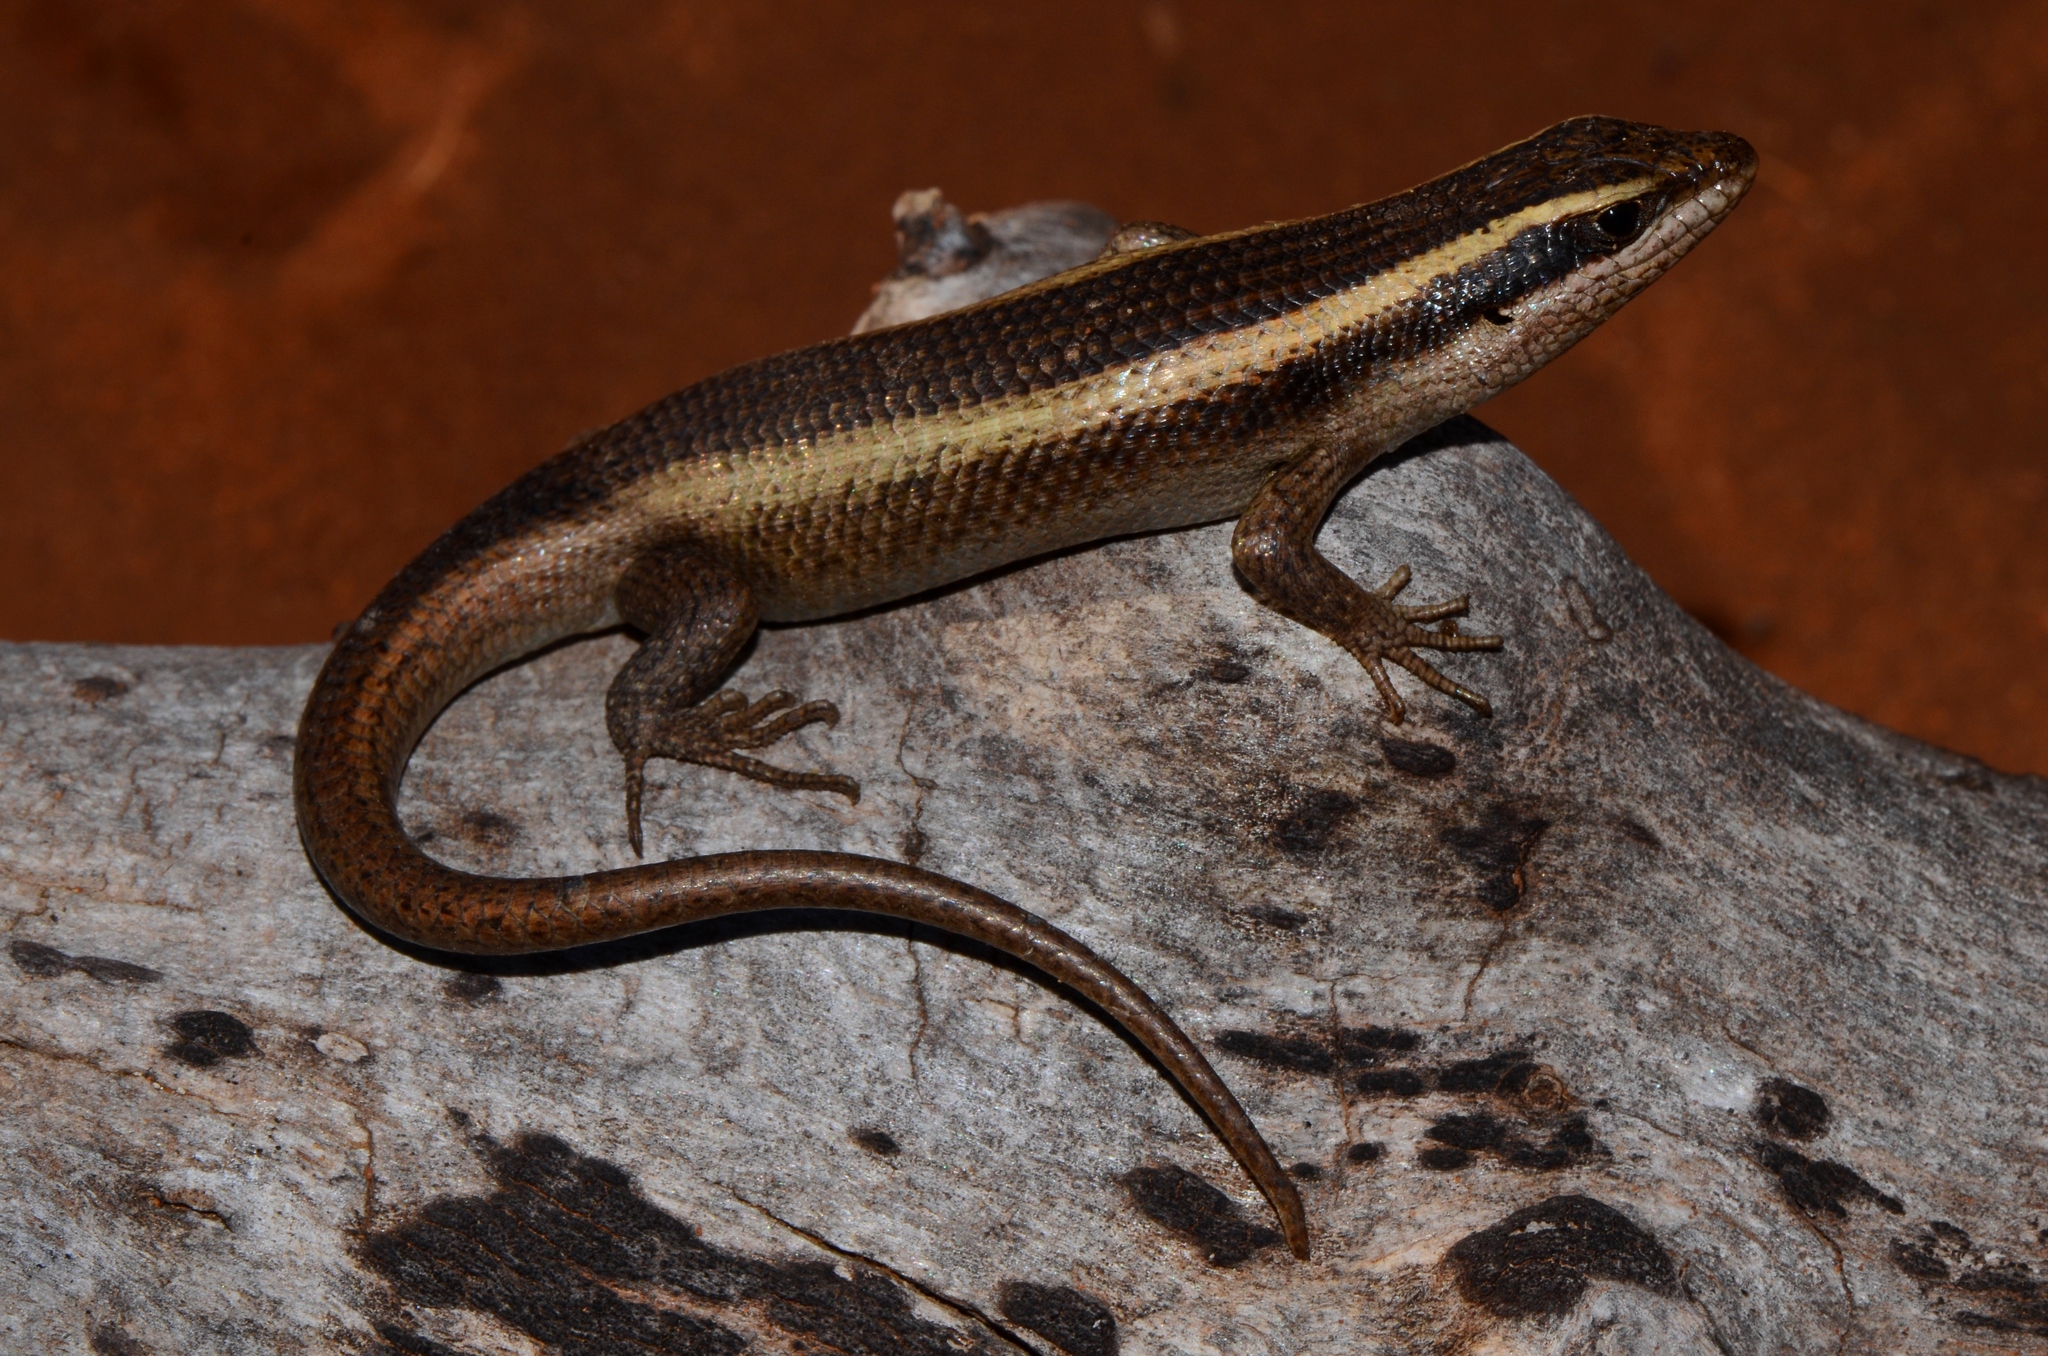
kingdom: Animalia
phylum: Chordata
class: Squamata
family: Scincidae
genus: Trachylepis
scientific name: Trachylepis striata
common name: African striped mabuya
